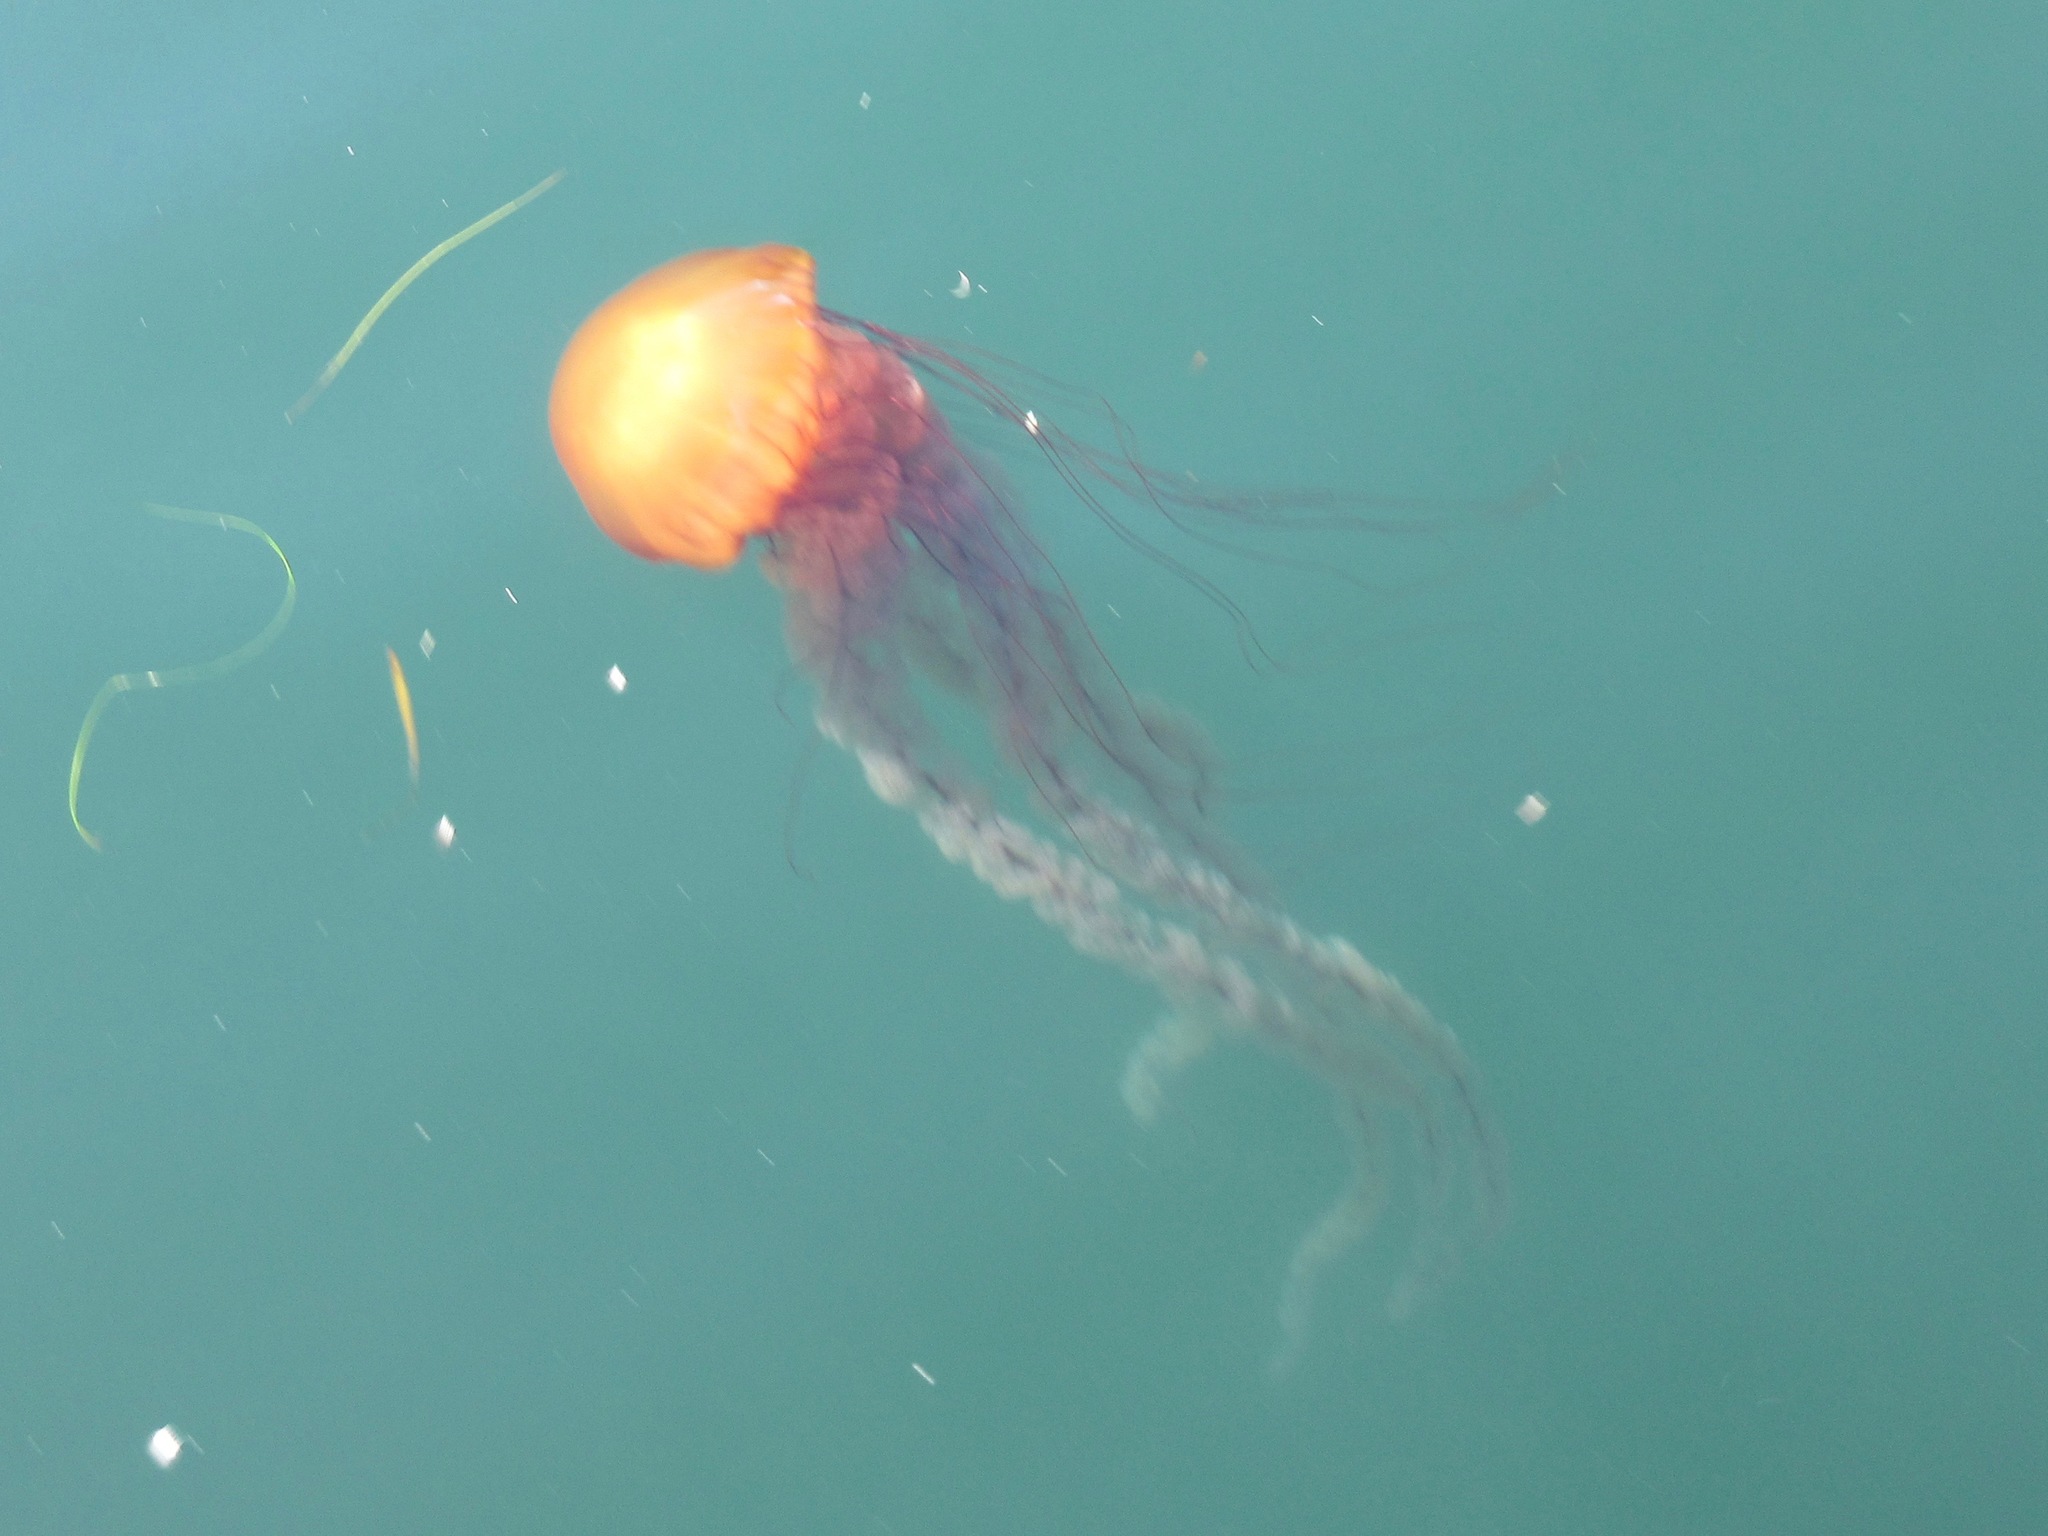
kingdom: Animalia
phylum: Cnidaria
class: Scyphozoa
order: Semaeostomeae
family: Pelagiidae
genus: Chrysaora
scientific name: Chrysaora fuscescens
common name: Sea nettle
